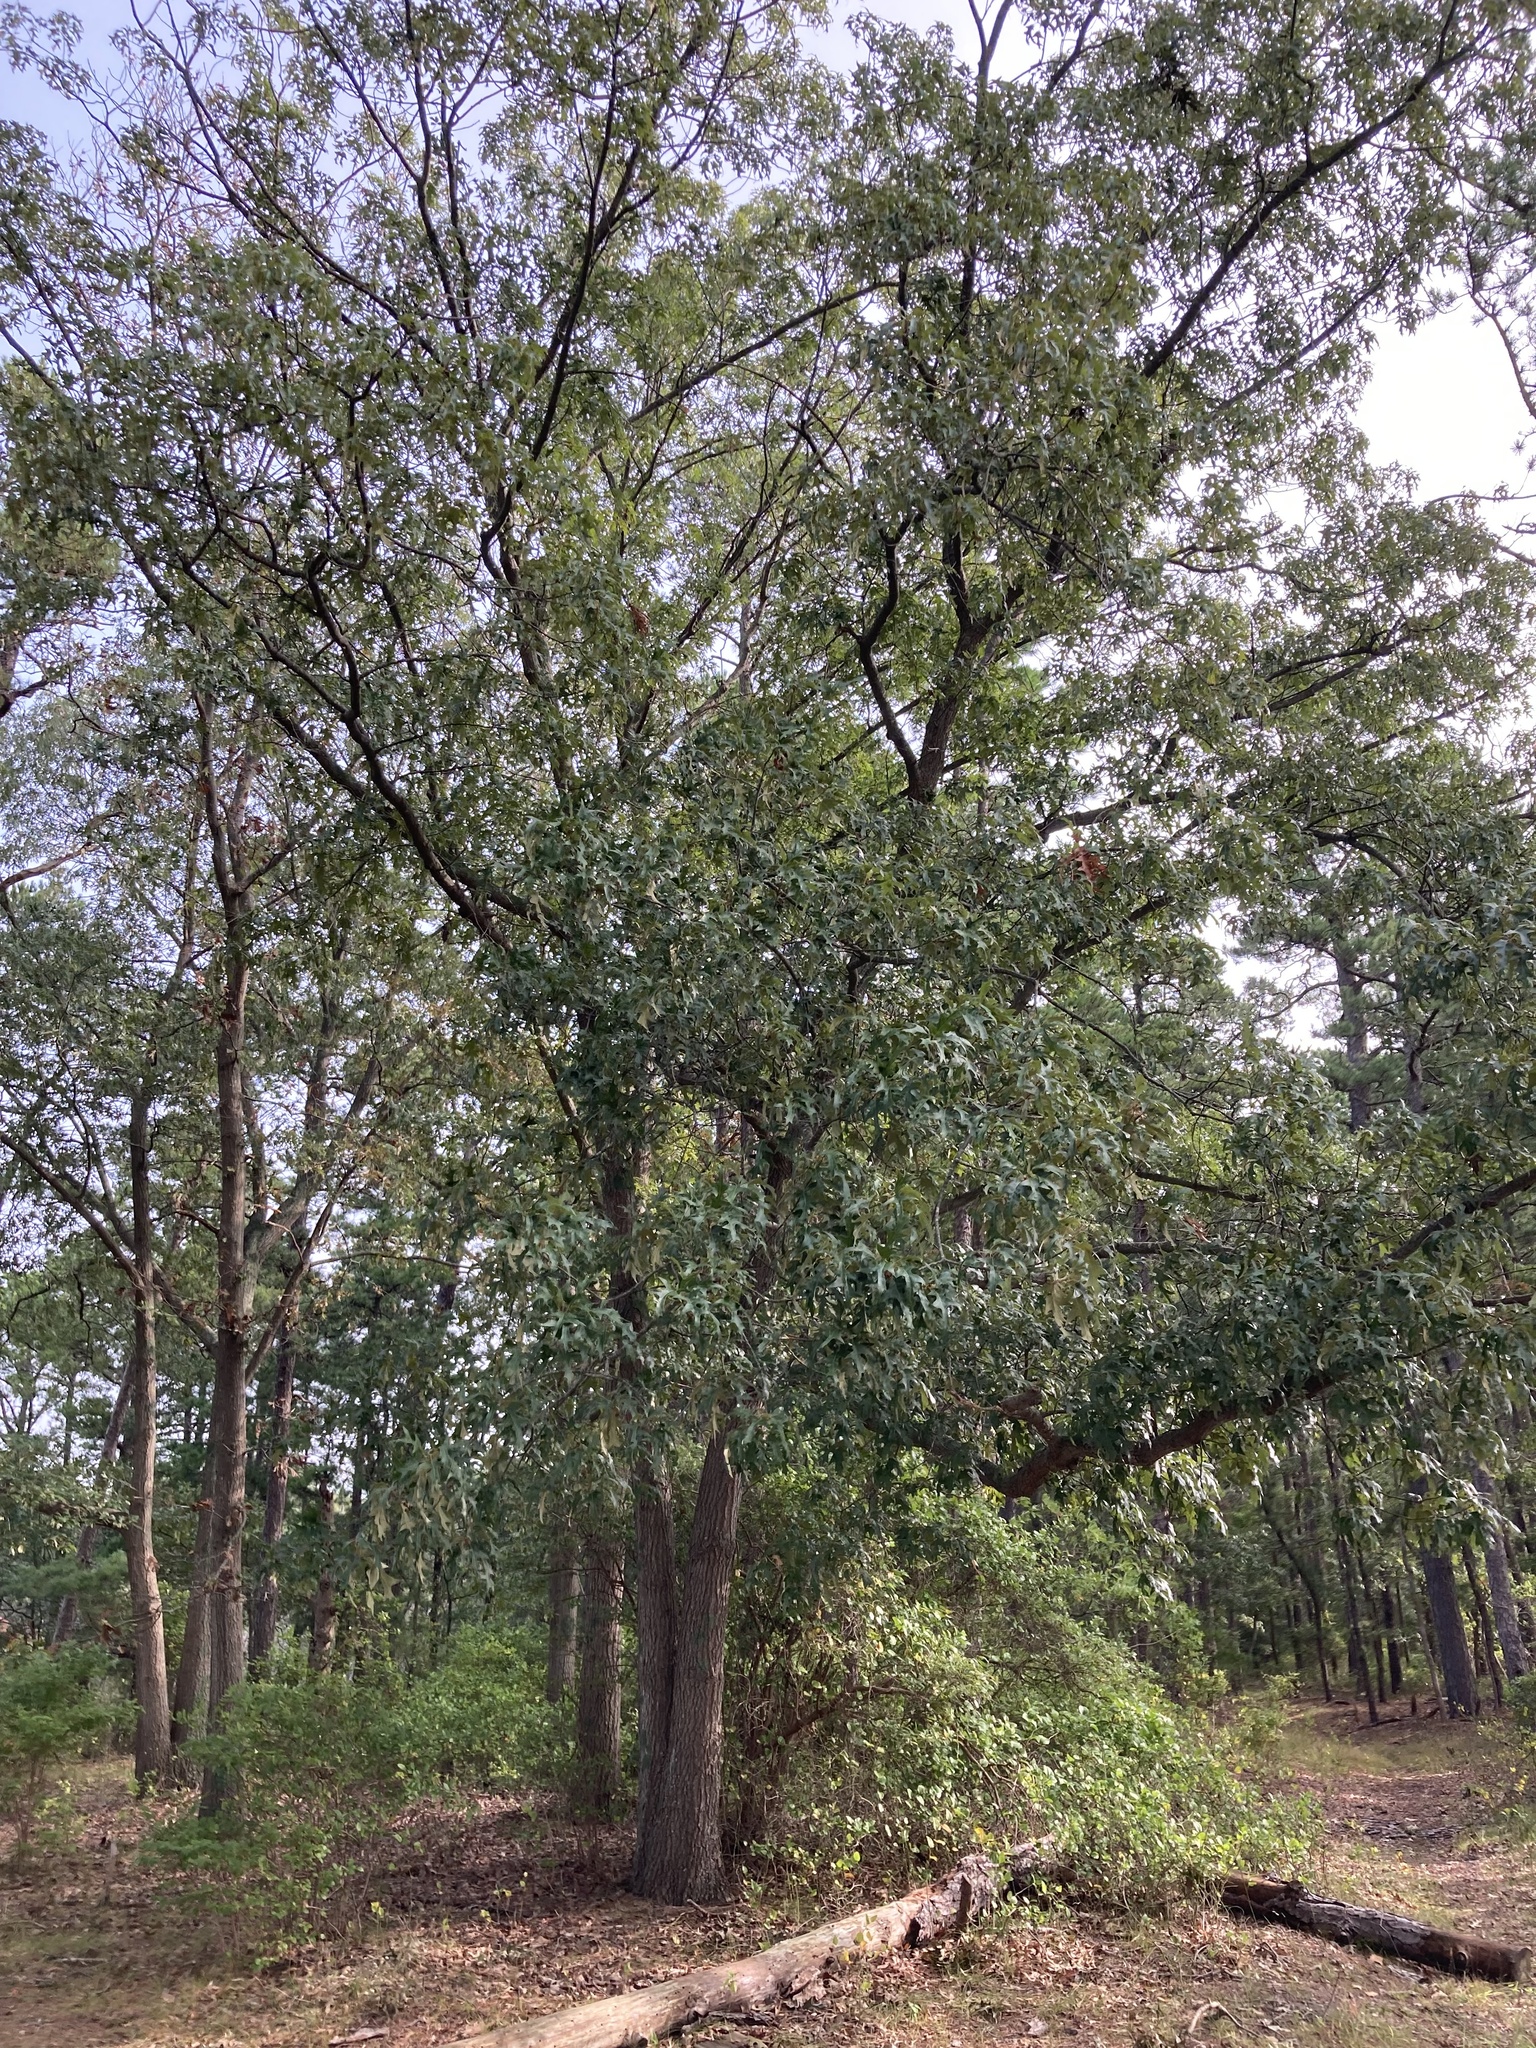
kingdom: Plantae
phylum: Tracheophyta
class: Magnoliopsida
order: Fagales
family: Fagaceae
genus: Quercus
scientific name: Quercus falcata
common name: Southern red oak
